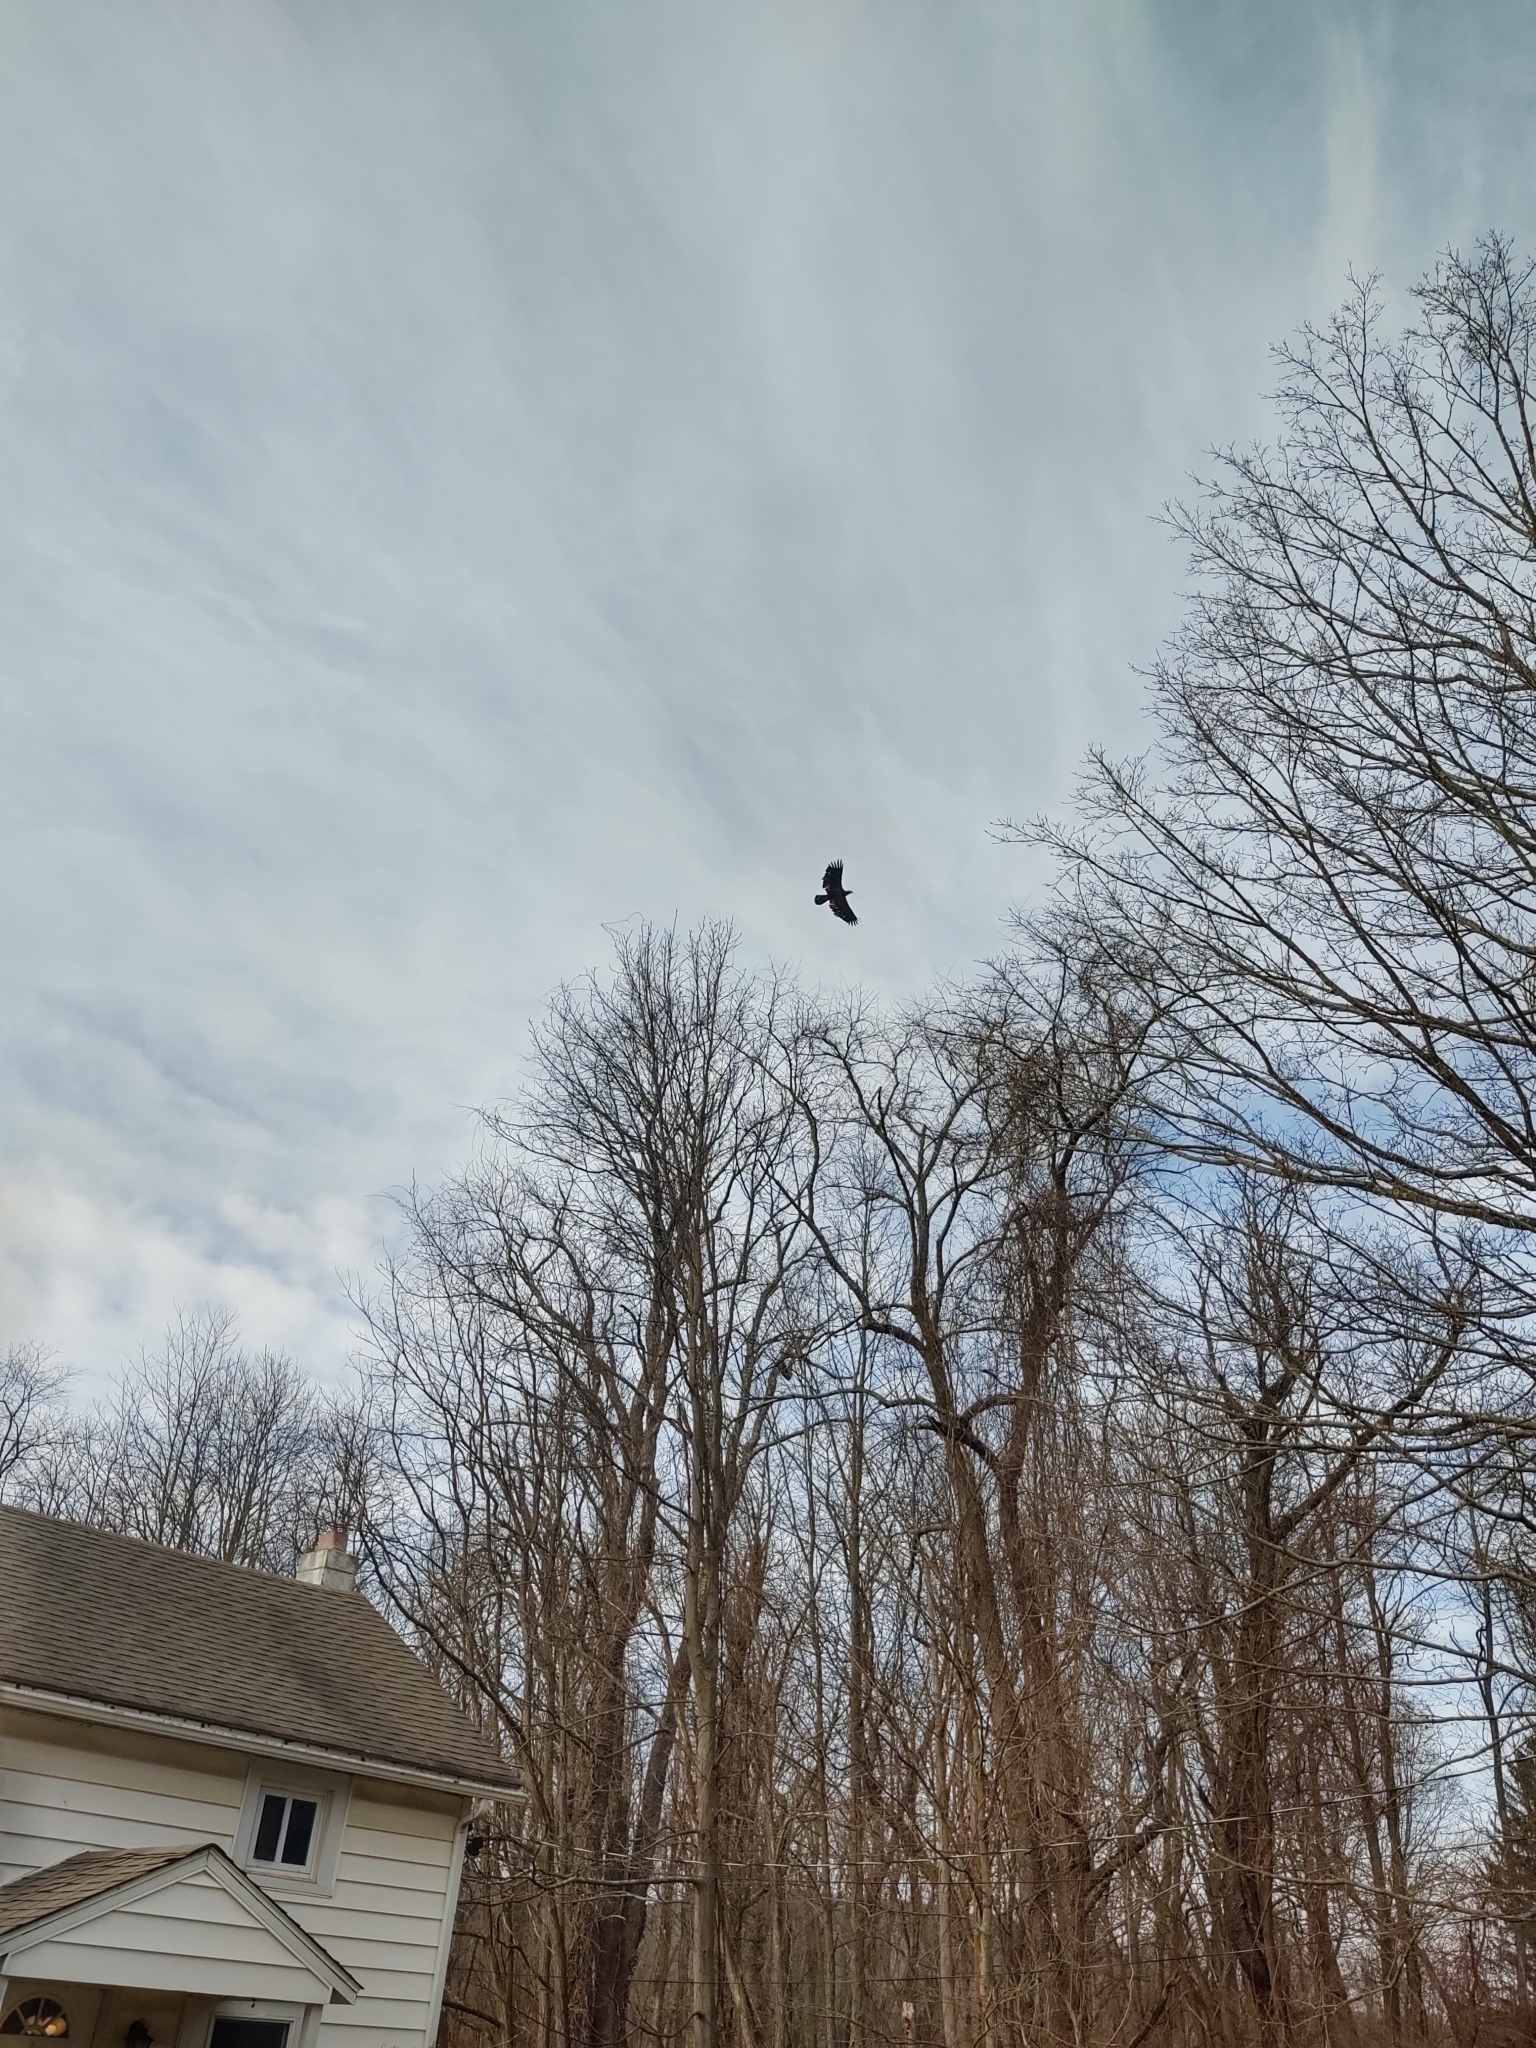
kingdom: Animalia
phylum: Chordata
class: Aves
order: Accipitriformes
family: Accipitridae
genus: Haliaeetus
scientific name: Haliaeetus leucocephalus
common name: Bald eagle
